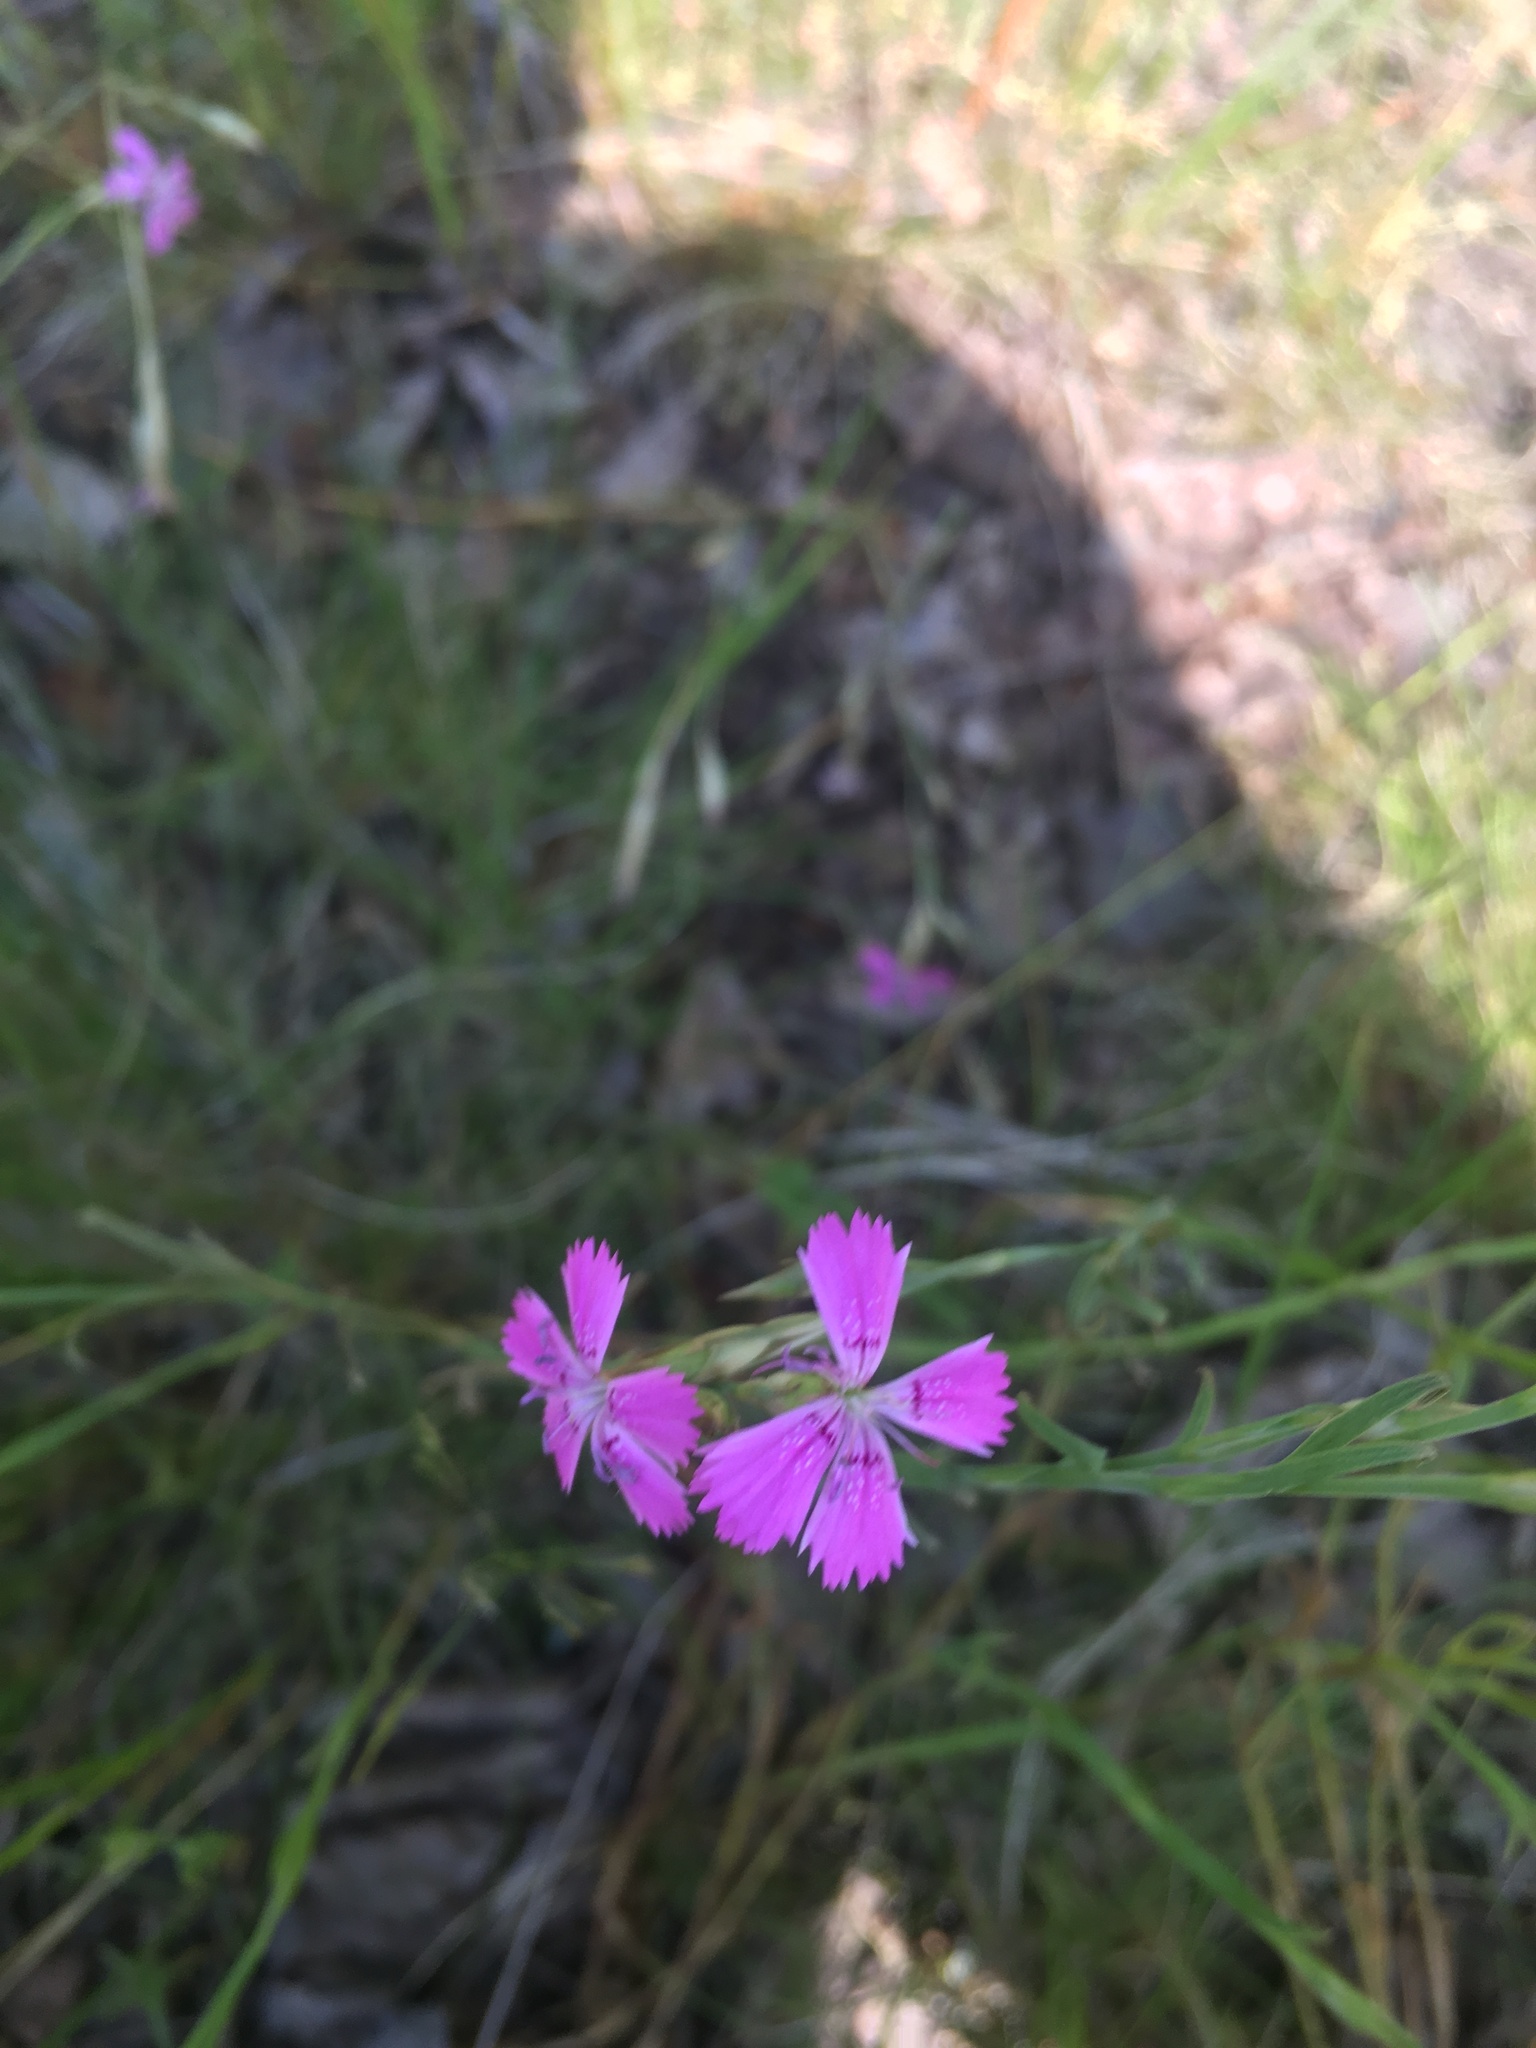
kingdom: Plantae
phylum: Tracheophyta
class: Magnoliopsida
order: Caryophyllales
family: Caryophyllaceae
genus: Dianthus
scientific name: Dianthus deltoides
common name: Maiden pink
